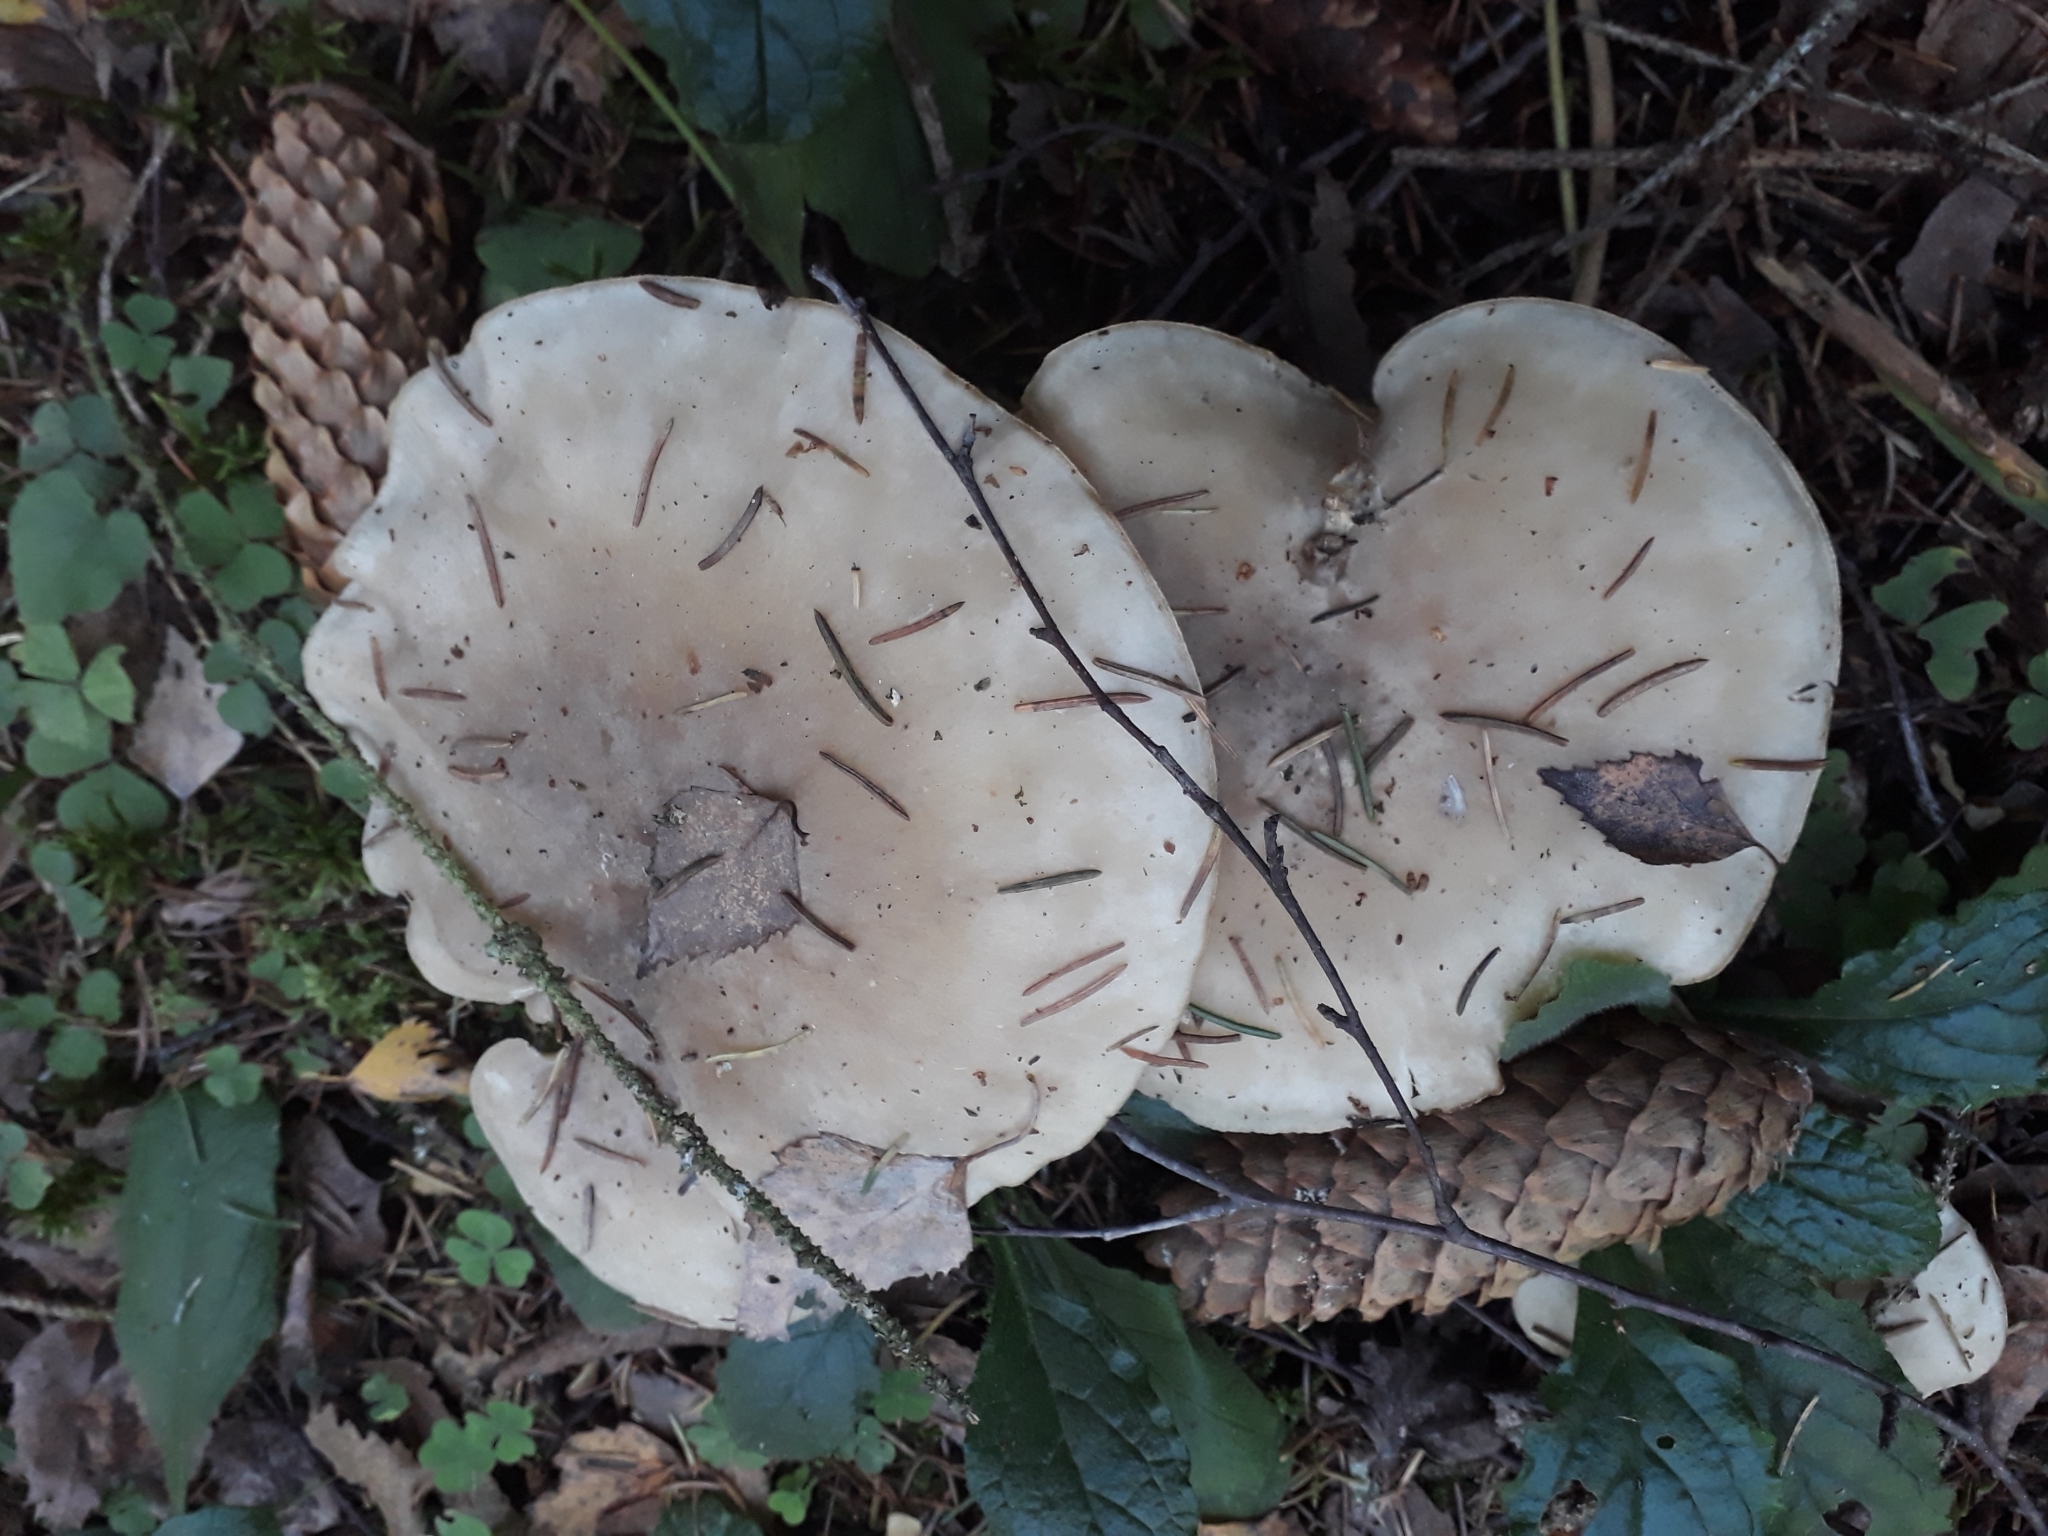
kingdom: Fungi
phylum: Basidiomycota
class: Agaricomycetes
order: Agaricales
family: Tricholomataceae
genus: Clitocybe
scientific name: Clitocybe nebularis
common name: Clouded agaric
